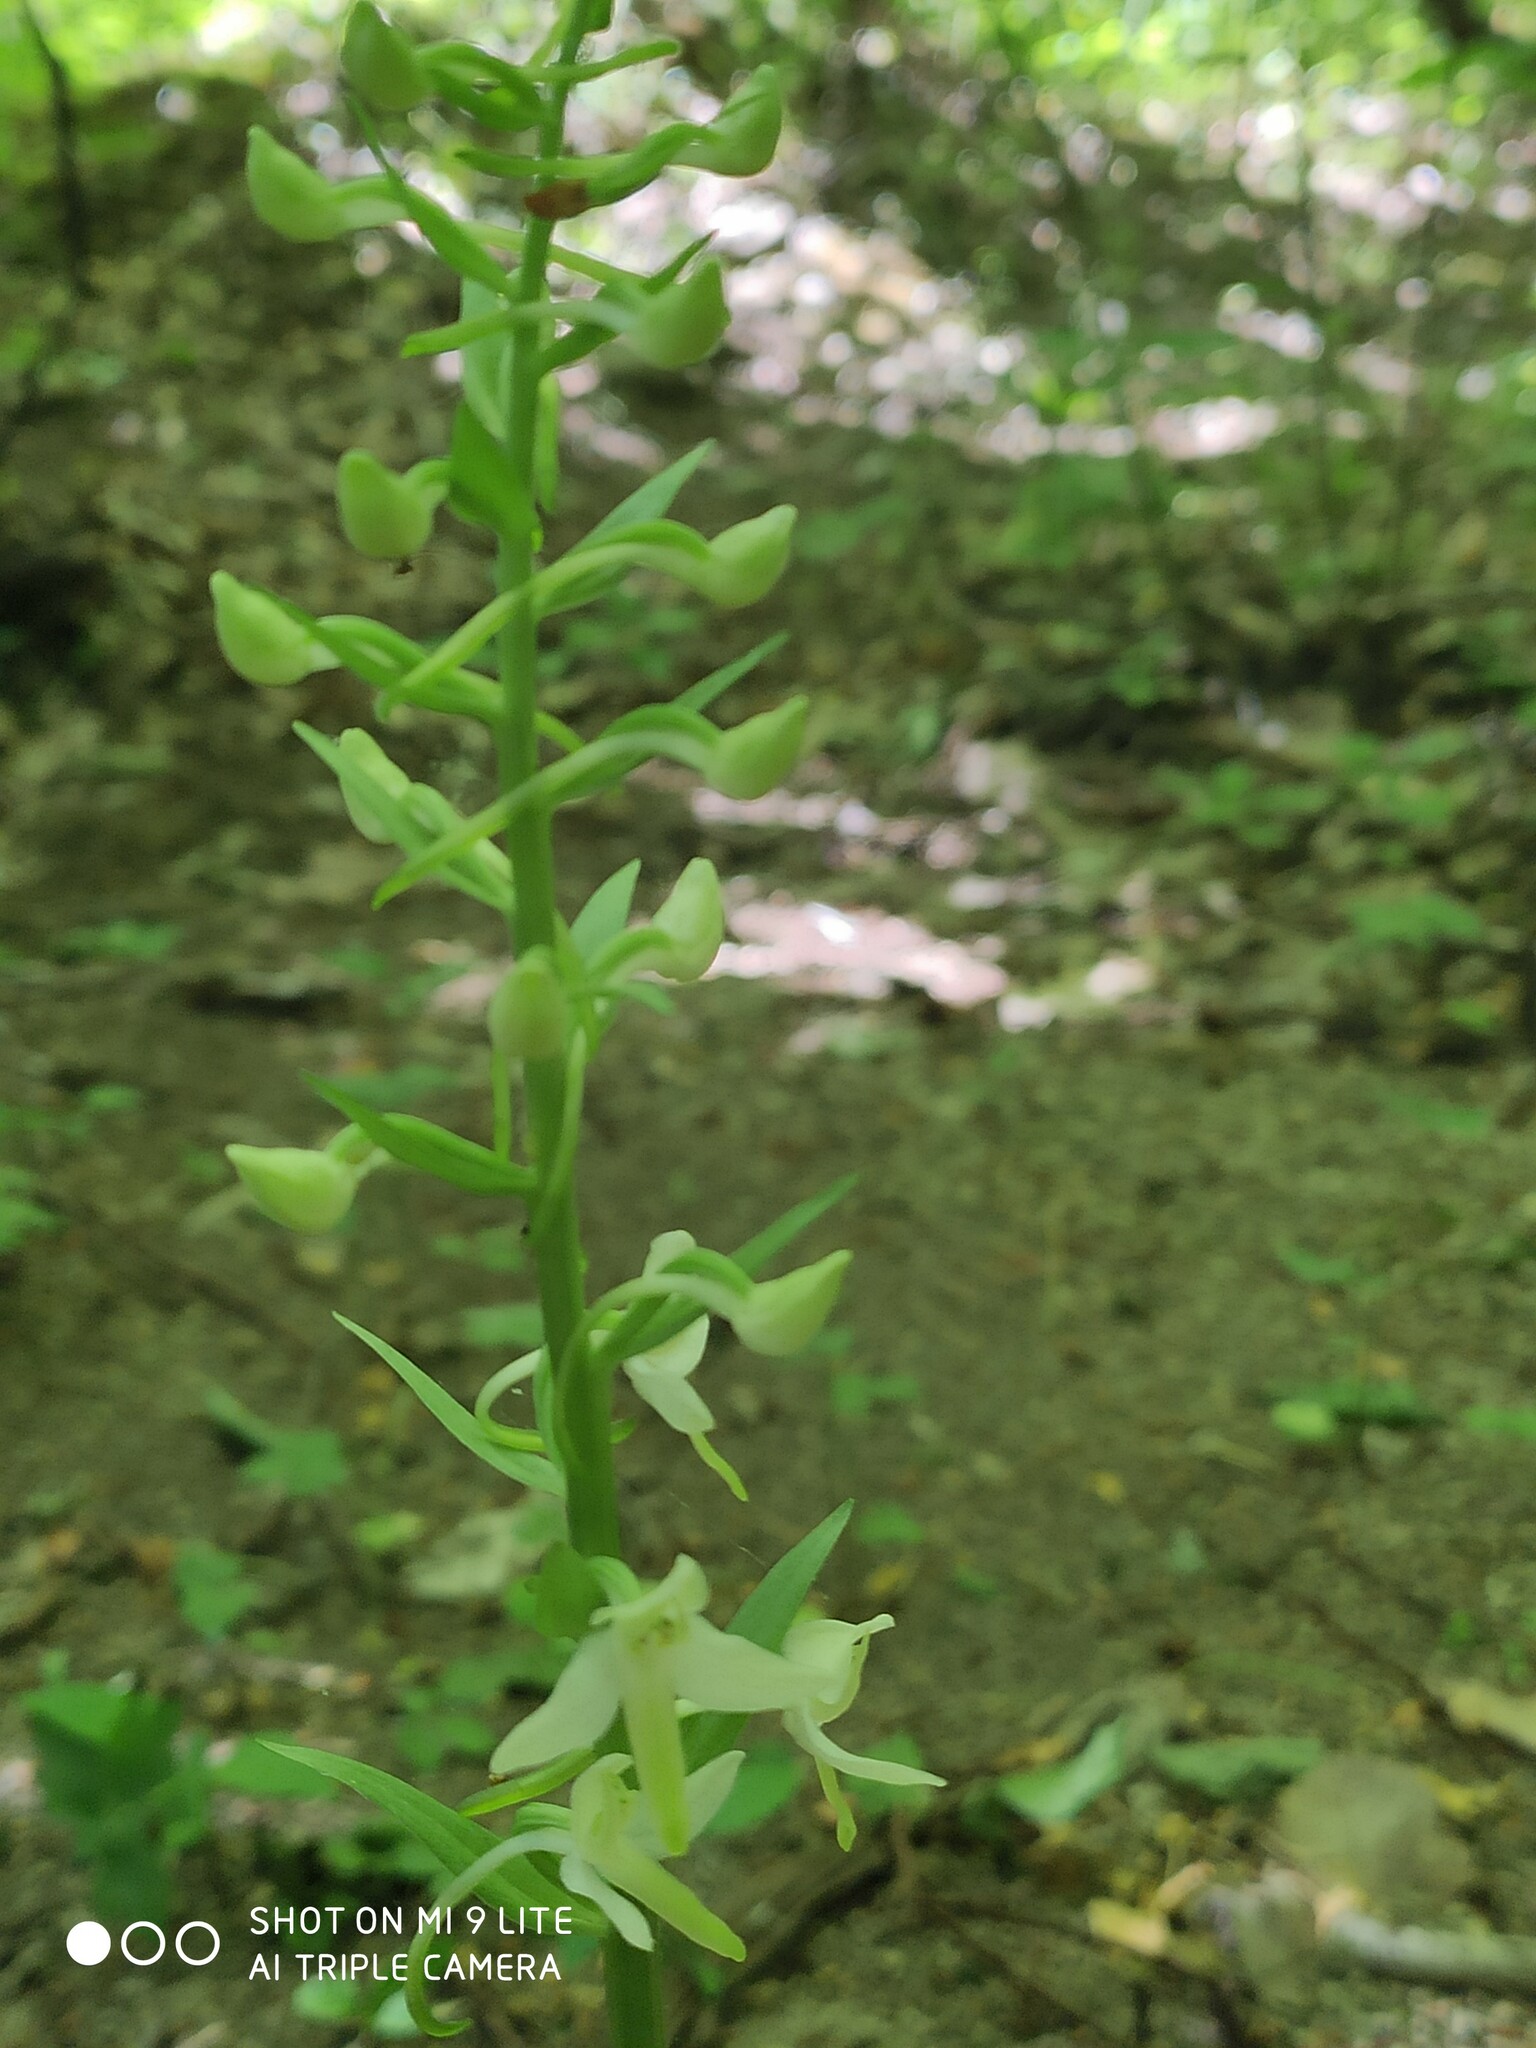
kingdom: Plantae
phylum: Tracheophyta
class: Liliopsida
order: Asparagales
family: Orchidaceae
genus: Platanthera
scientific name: Platanthera hybrida
